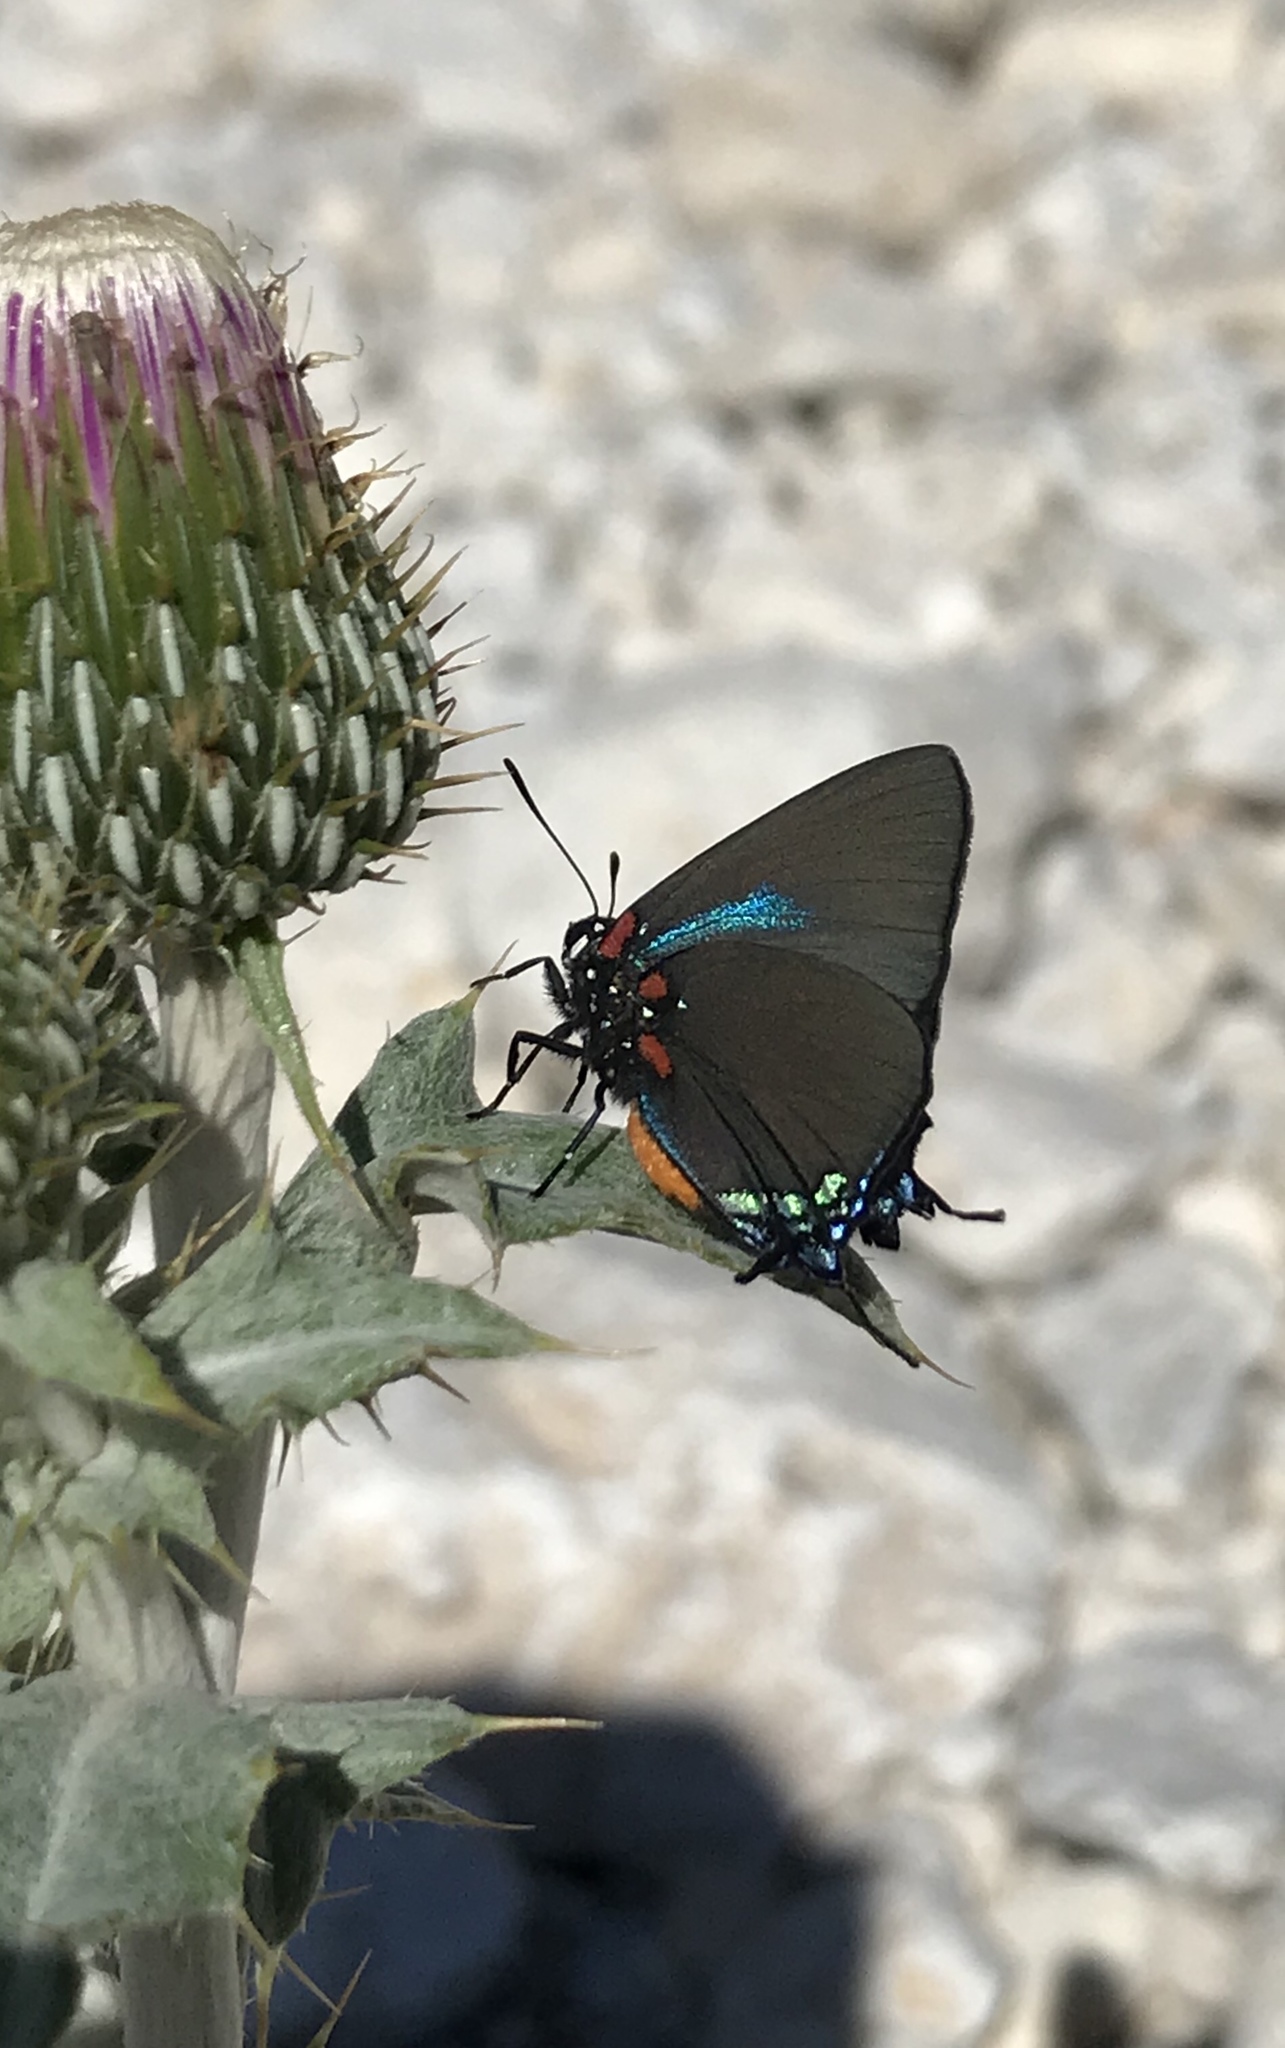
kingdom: Animalia
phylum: Arthropoda
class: Insecta
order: Lepidoptera
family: Lycaenidae
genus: Atlides
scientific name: Atlides halesus
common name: Great purple hairstreak
